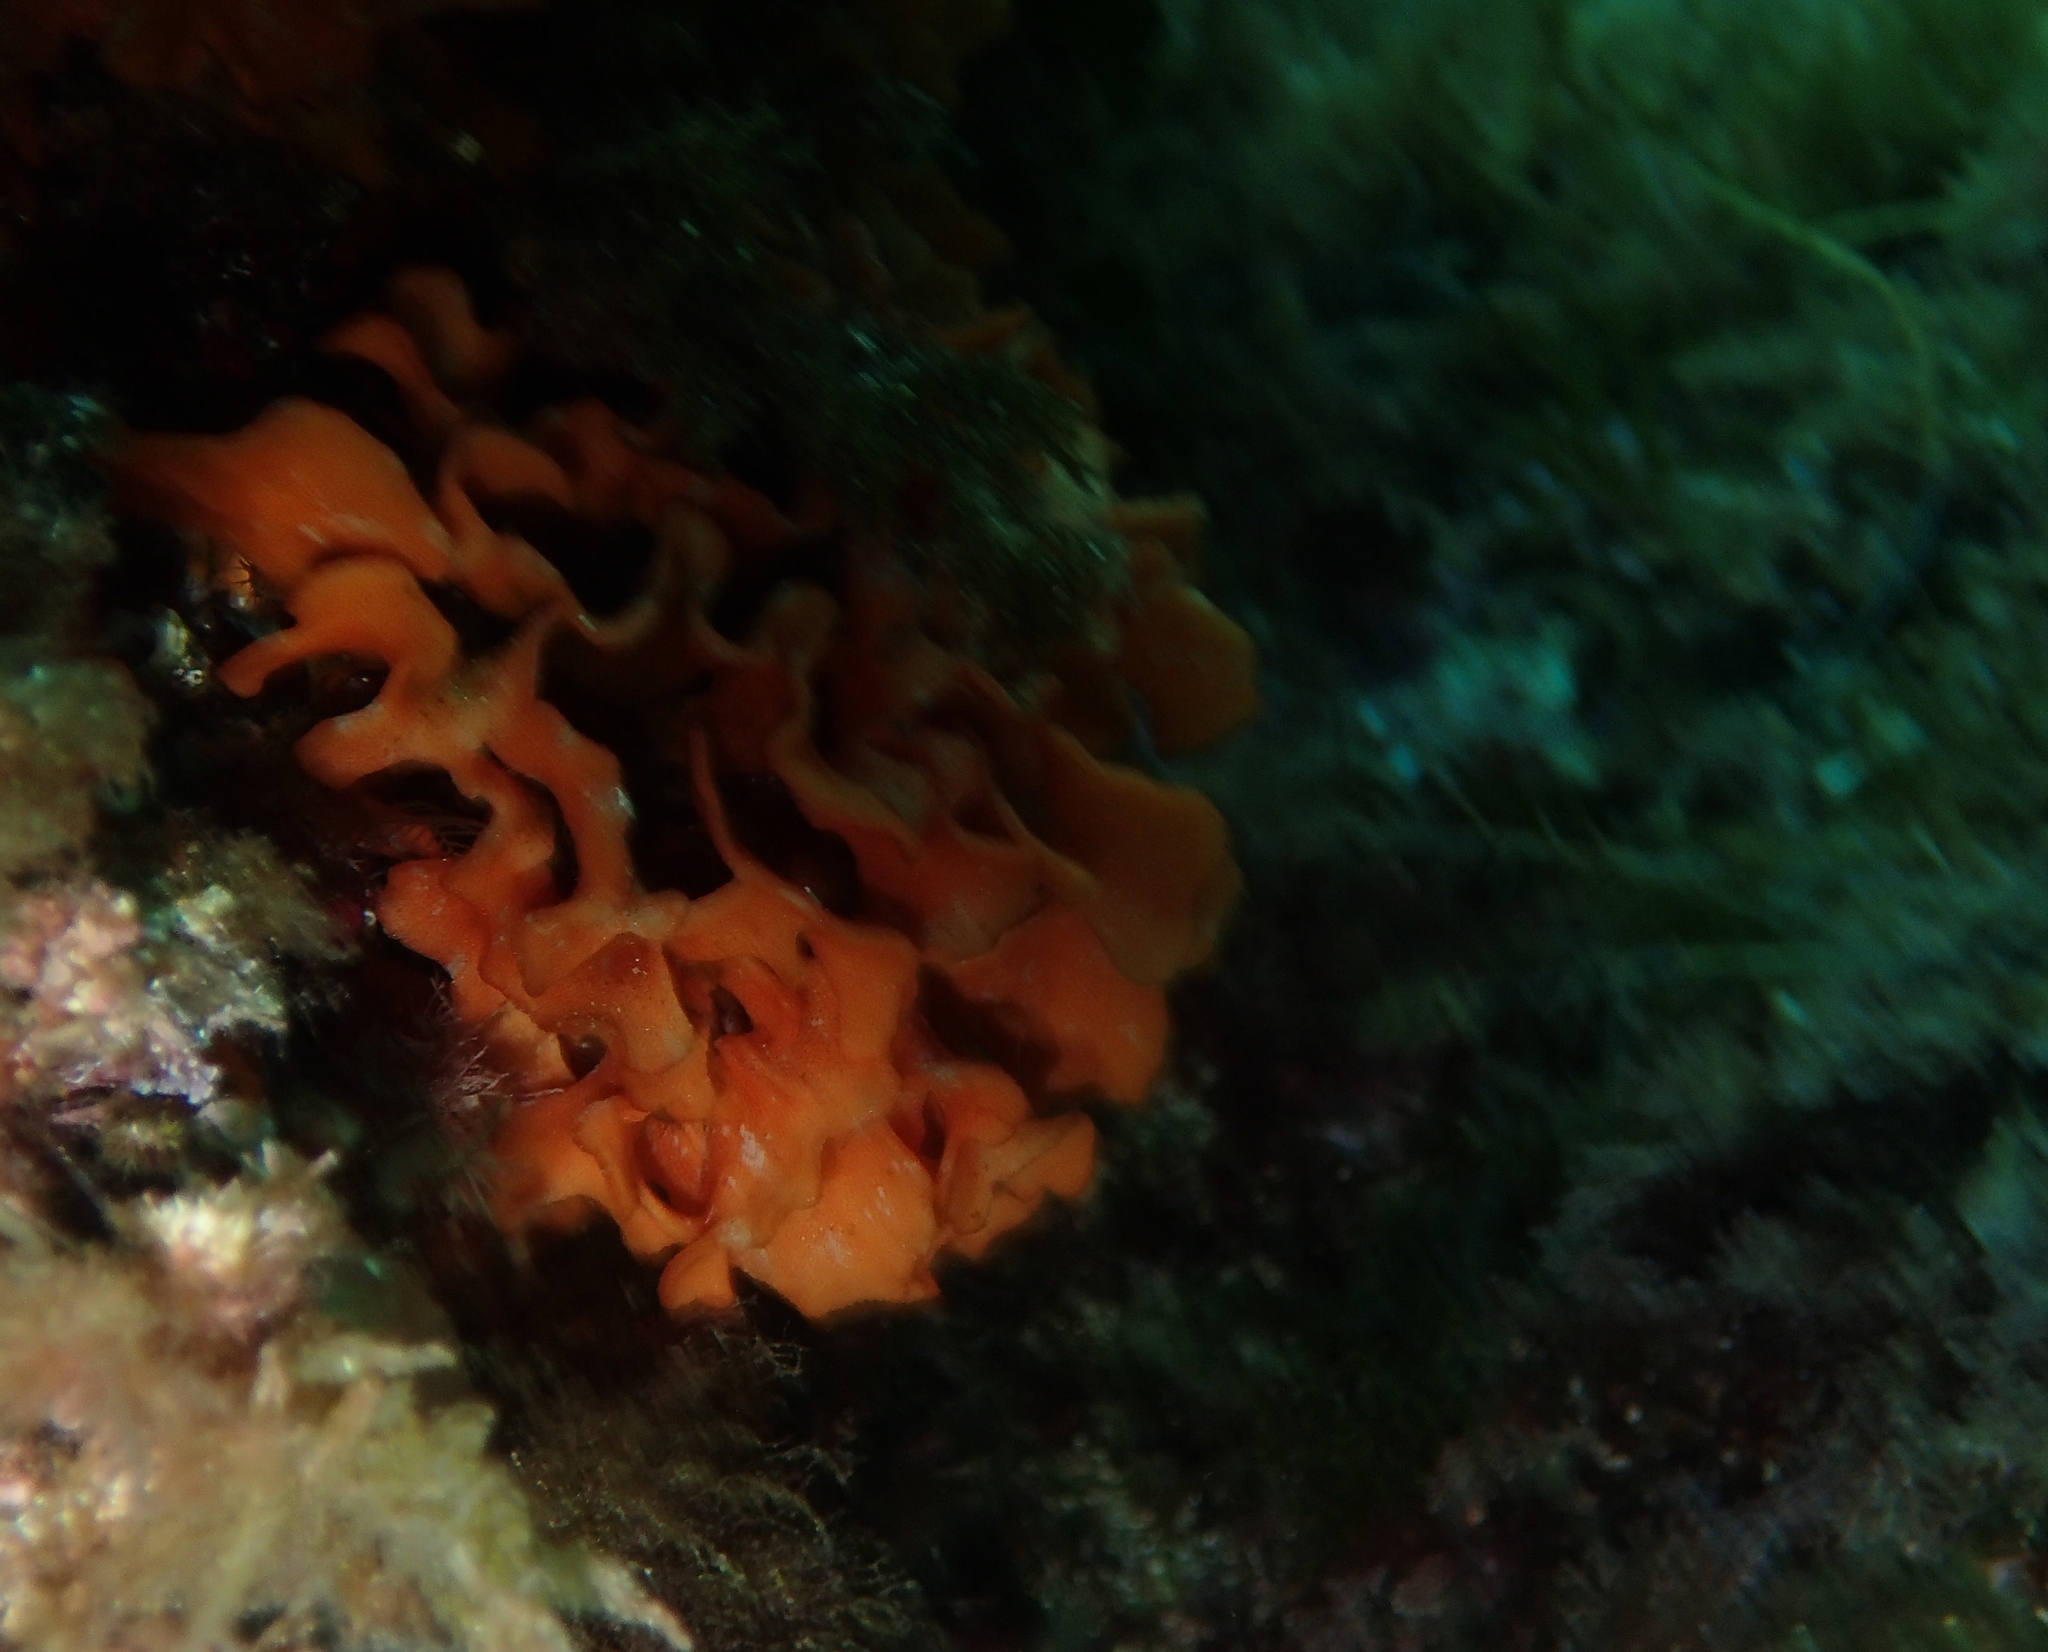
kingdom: Animalia
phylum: Bryozoa
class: Gymnolaemata
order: Cheilostomatida
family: Bitectiporidae
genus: Pentapora
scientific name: Pentapora fascialis
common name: Ross coral
